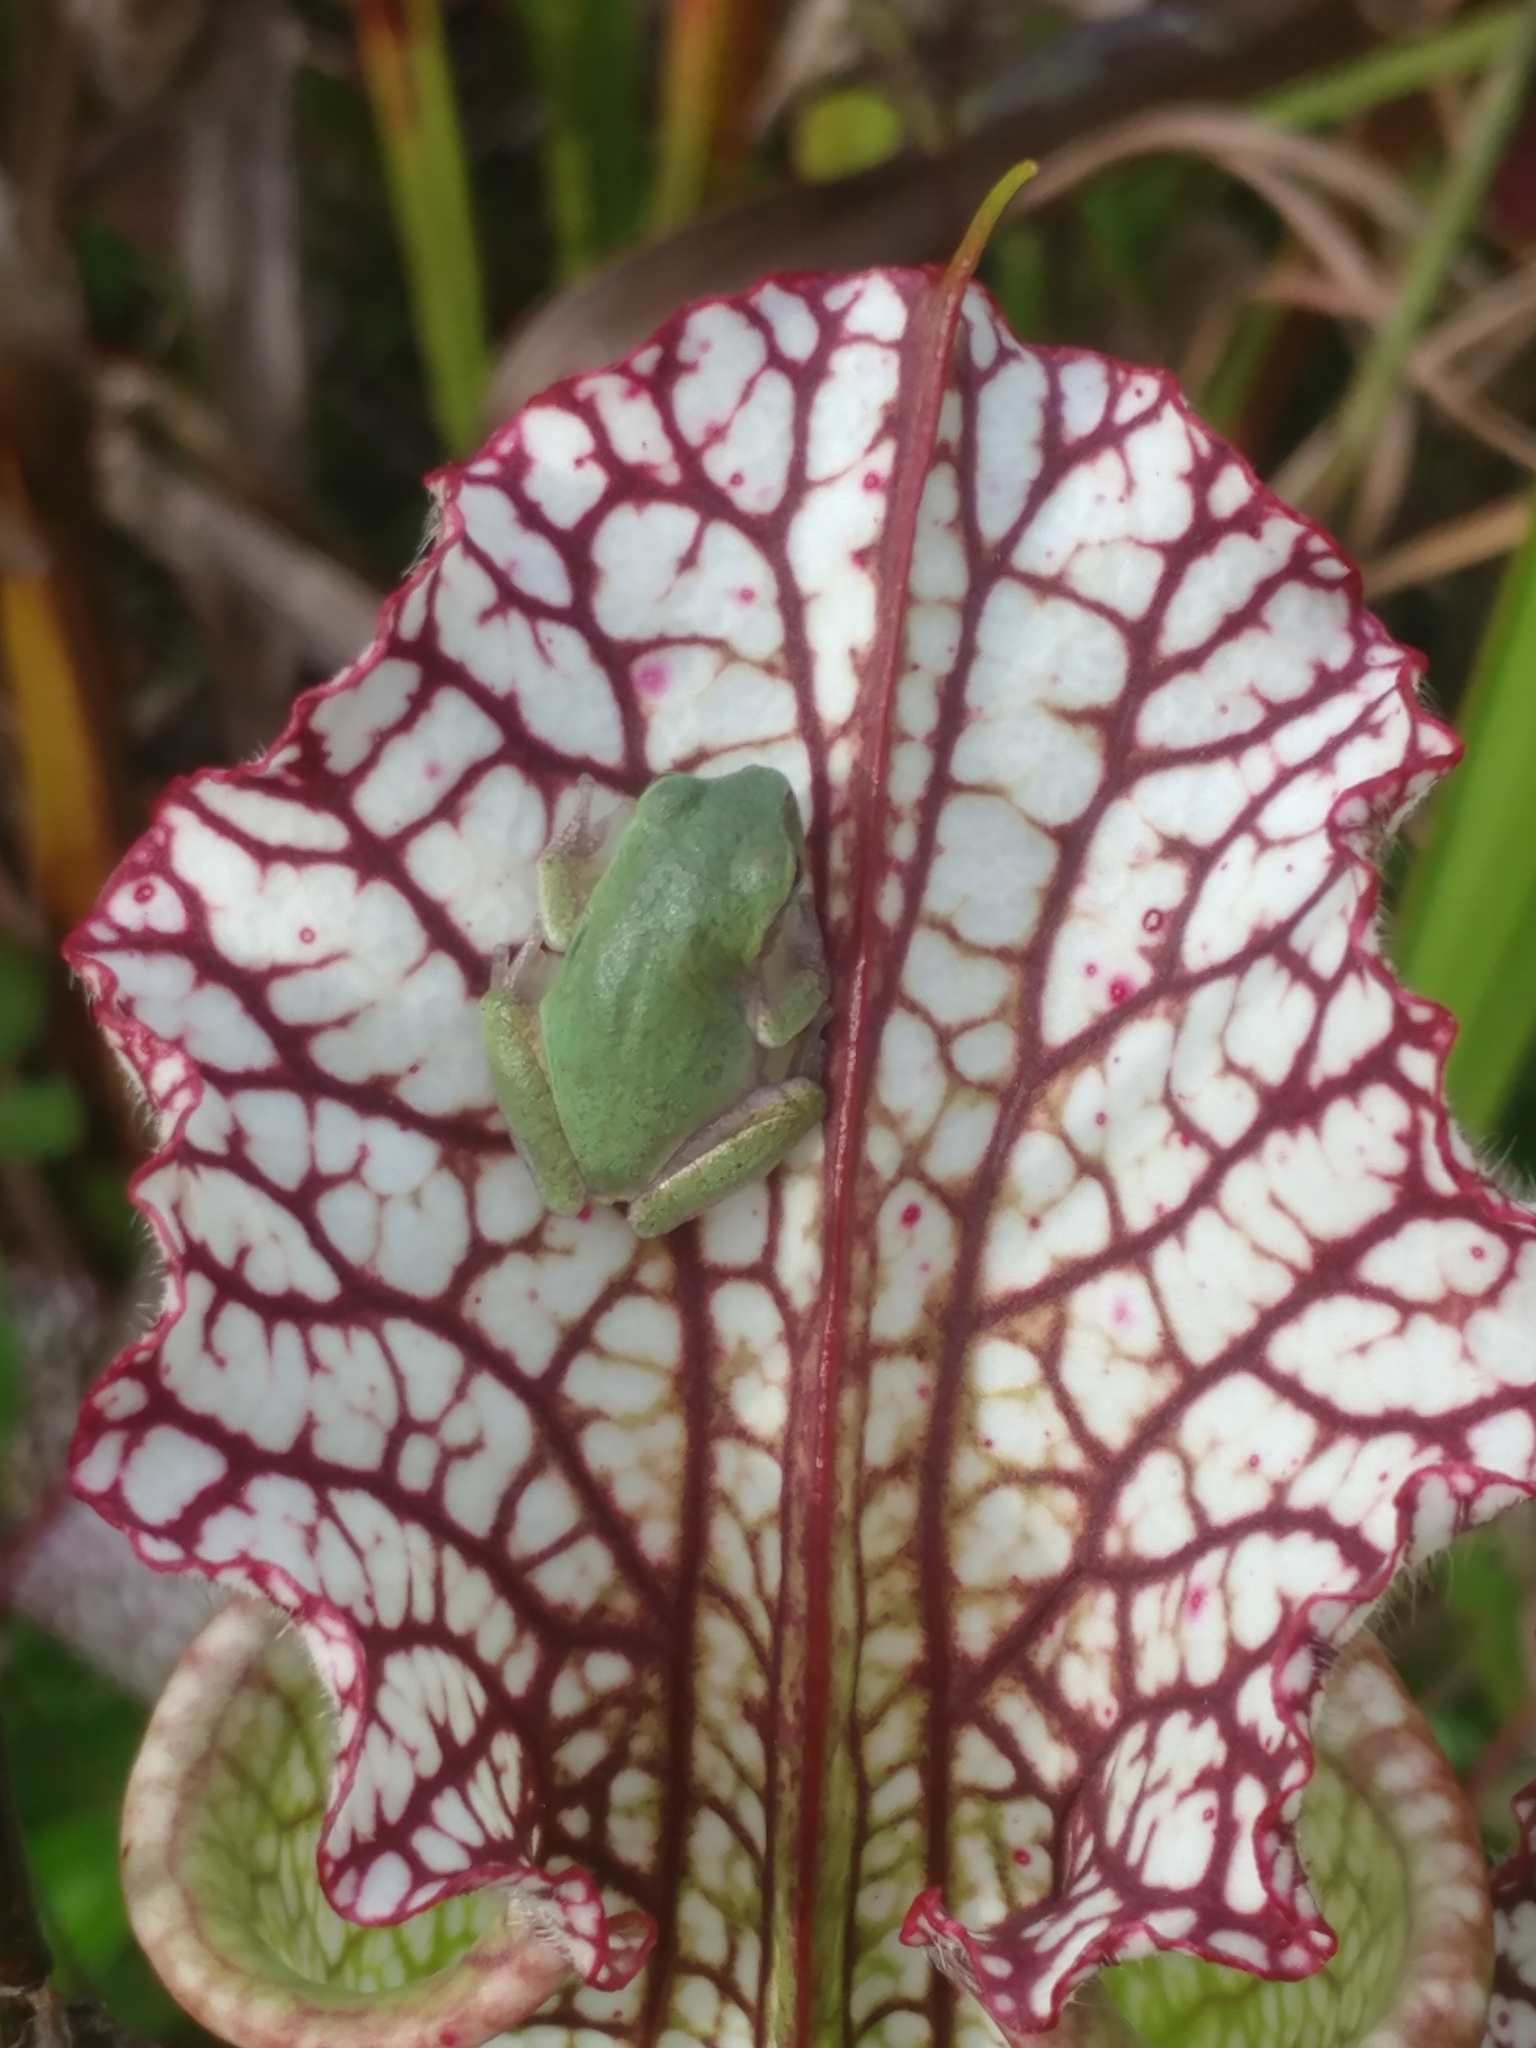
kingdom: Animalia
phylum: Chordata
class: Amphibia
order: Anura
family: Hylidae
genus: Hyla
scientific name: Hyla femoralis
